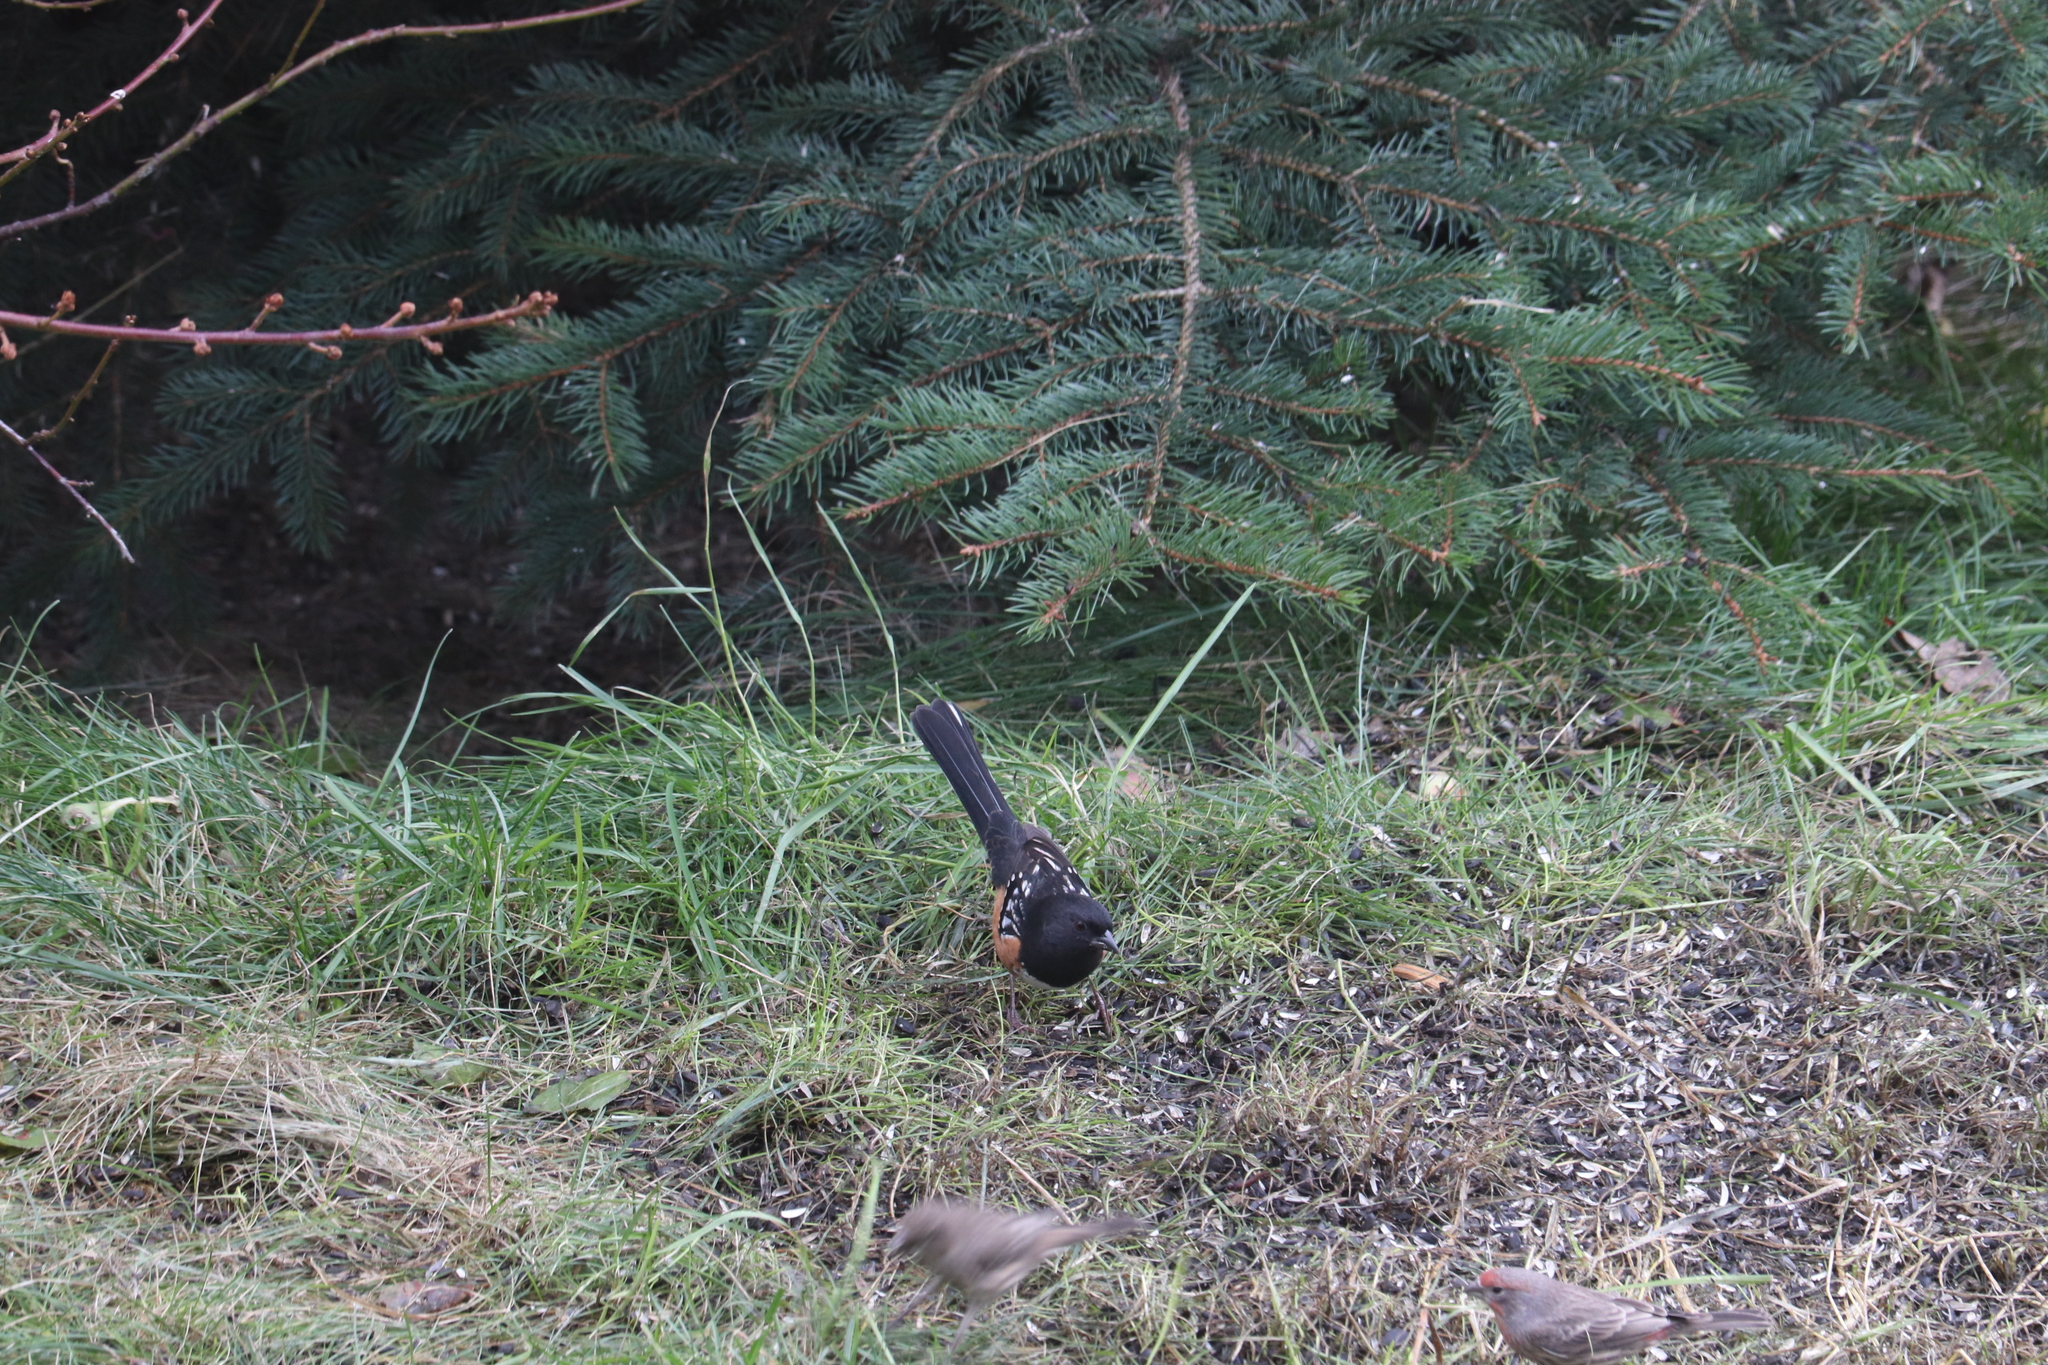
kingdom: Animalia
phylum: Chordata
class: Aves
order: Passeriformes
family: Passerellidae
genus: Pipilo
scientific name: Pipilo maculatus
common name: Spotted towhee
